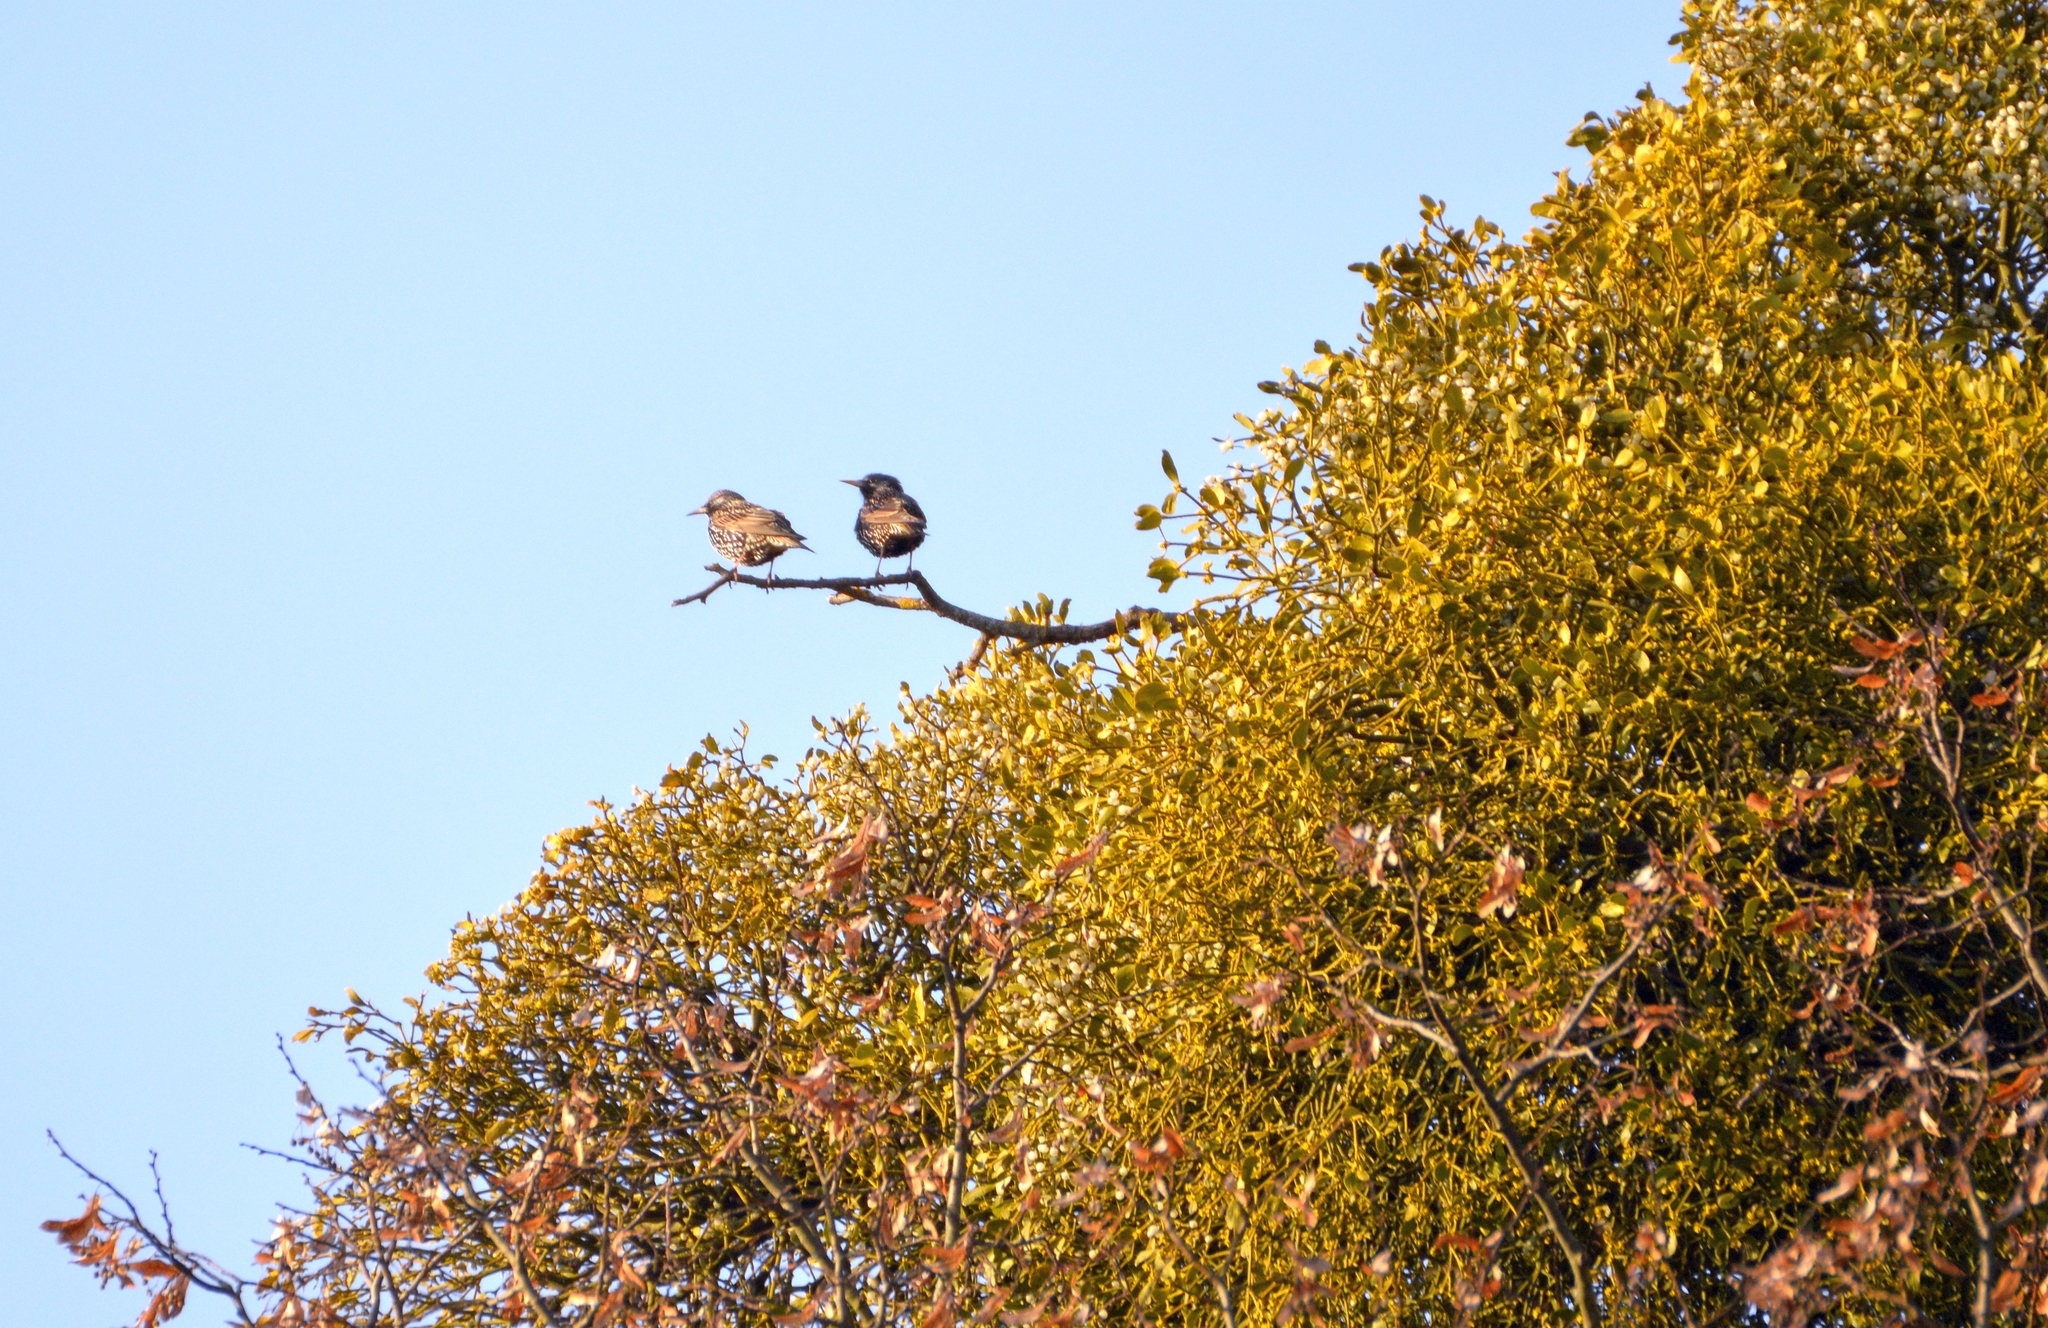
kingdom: Animalia
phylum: Chordata
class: Aves
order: Passeriformes
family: Sturnidae
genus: Sturnus
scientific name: Sturnus vulgaris
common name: Common starling
